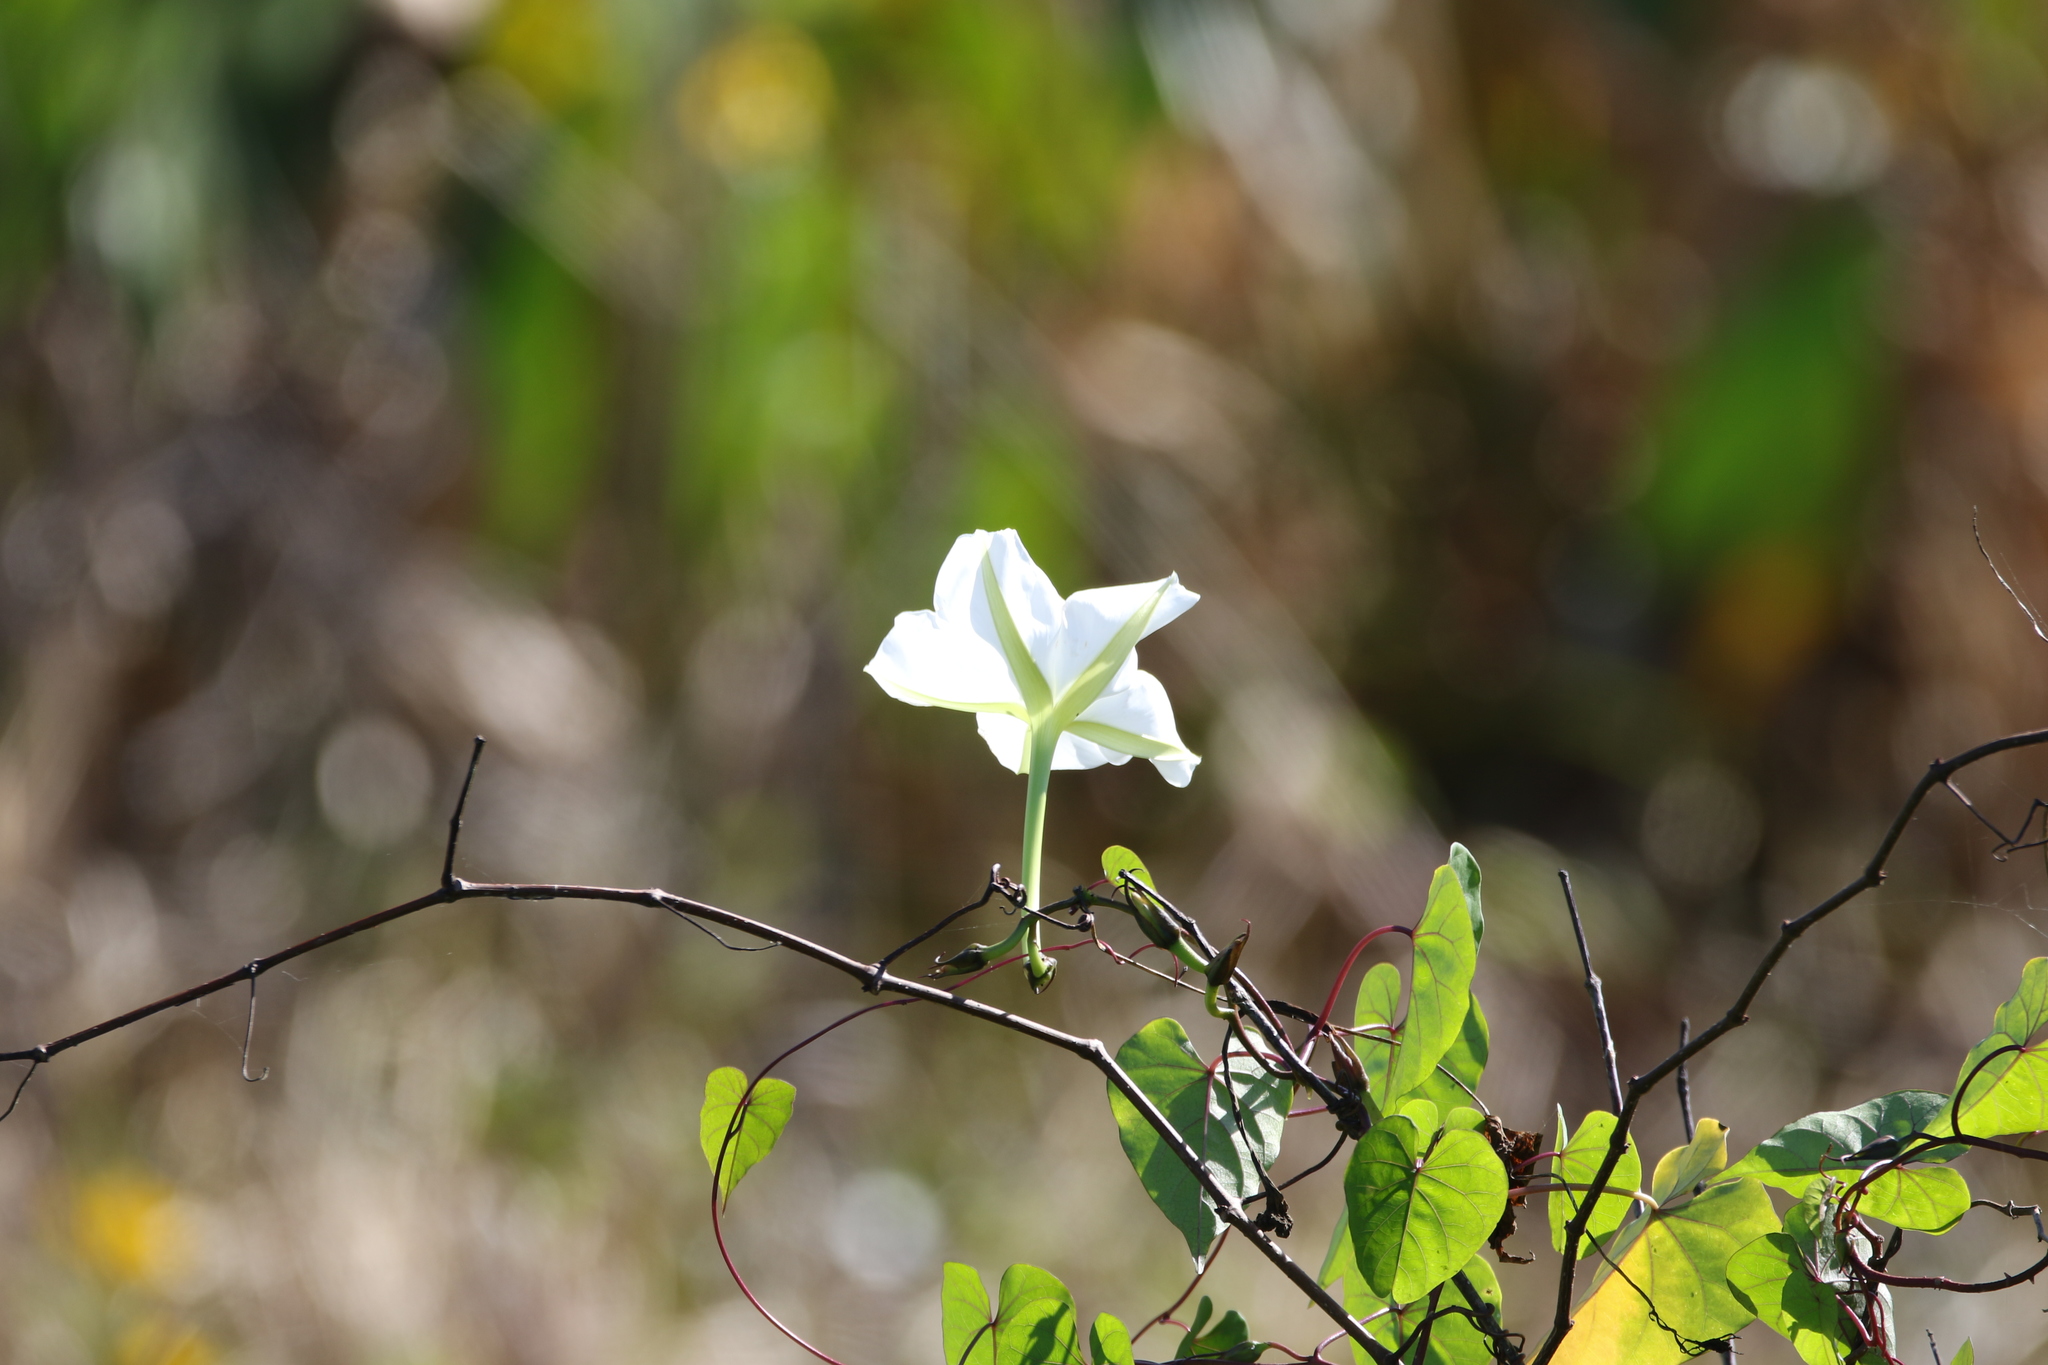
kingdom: Plantae
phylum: Tracheophyta
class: Magnoliopsida
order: Solanales
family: Convolvulaceae
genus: Ipomoea
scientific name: Ipomoea alba
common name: Moonflower
